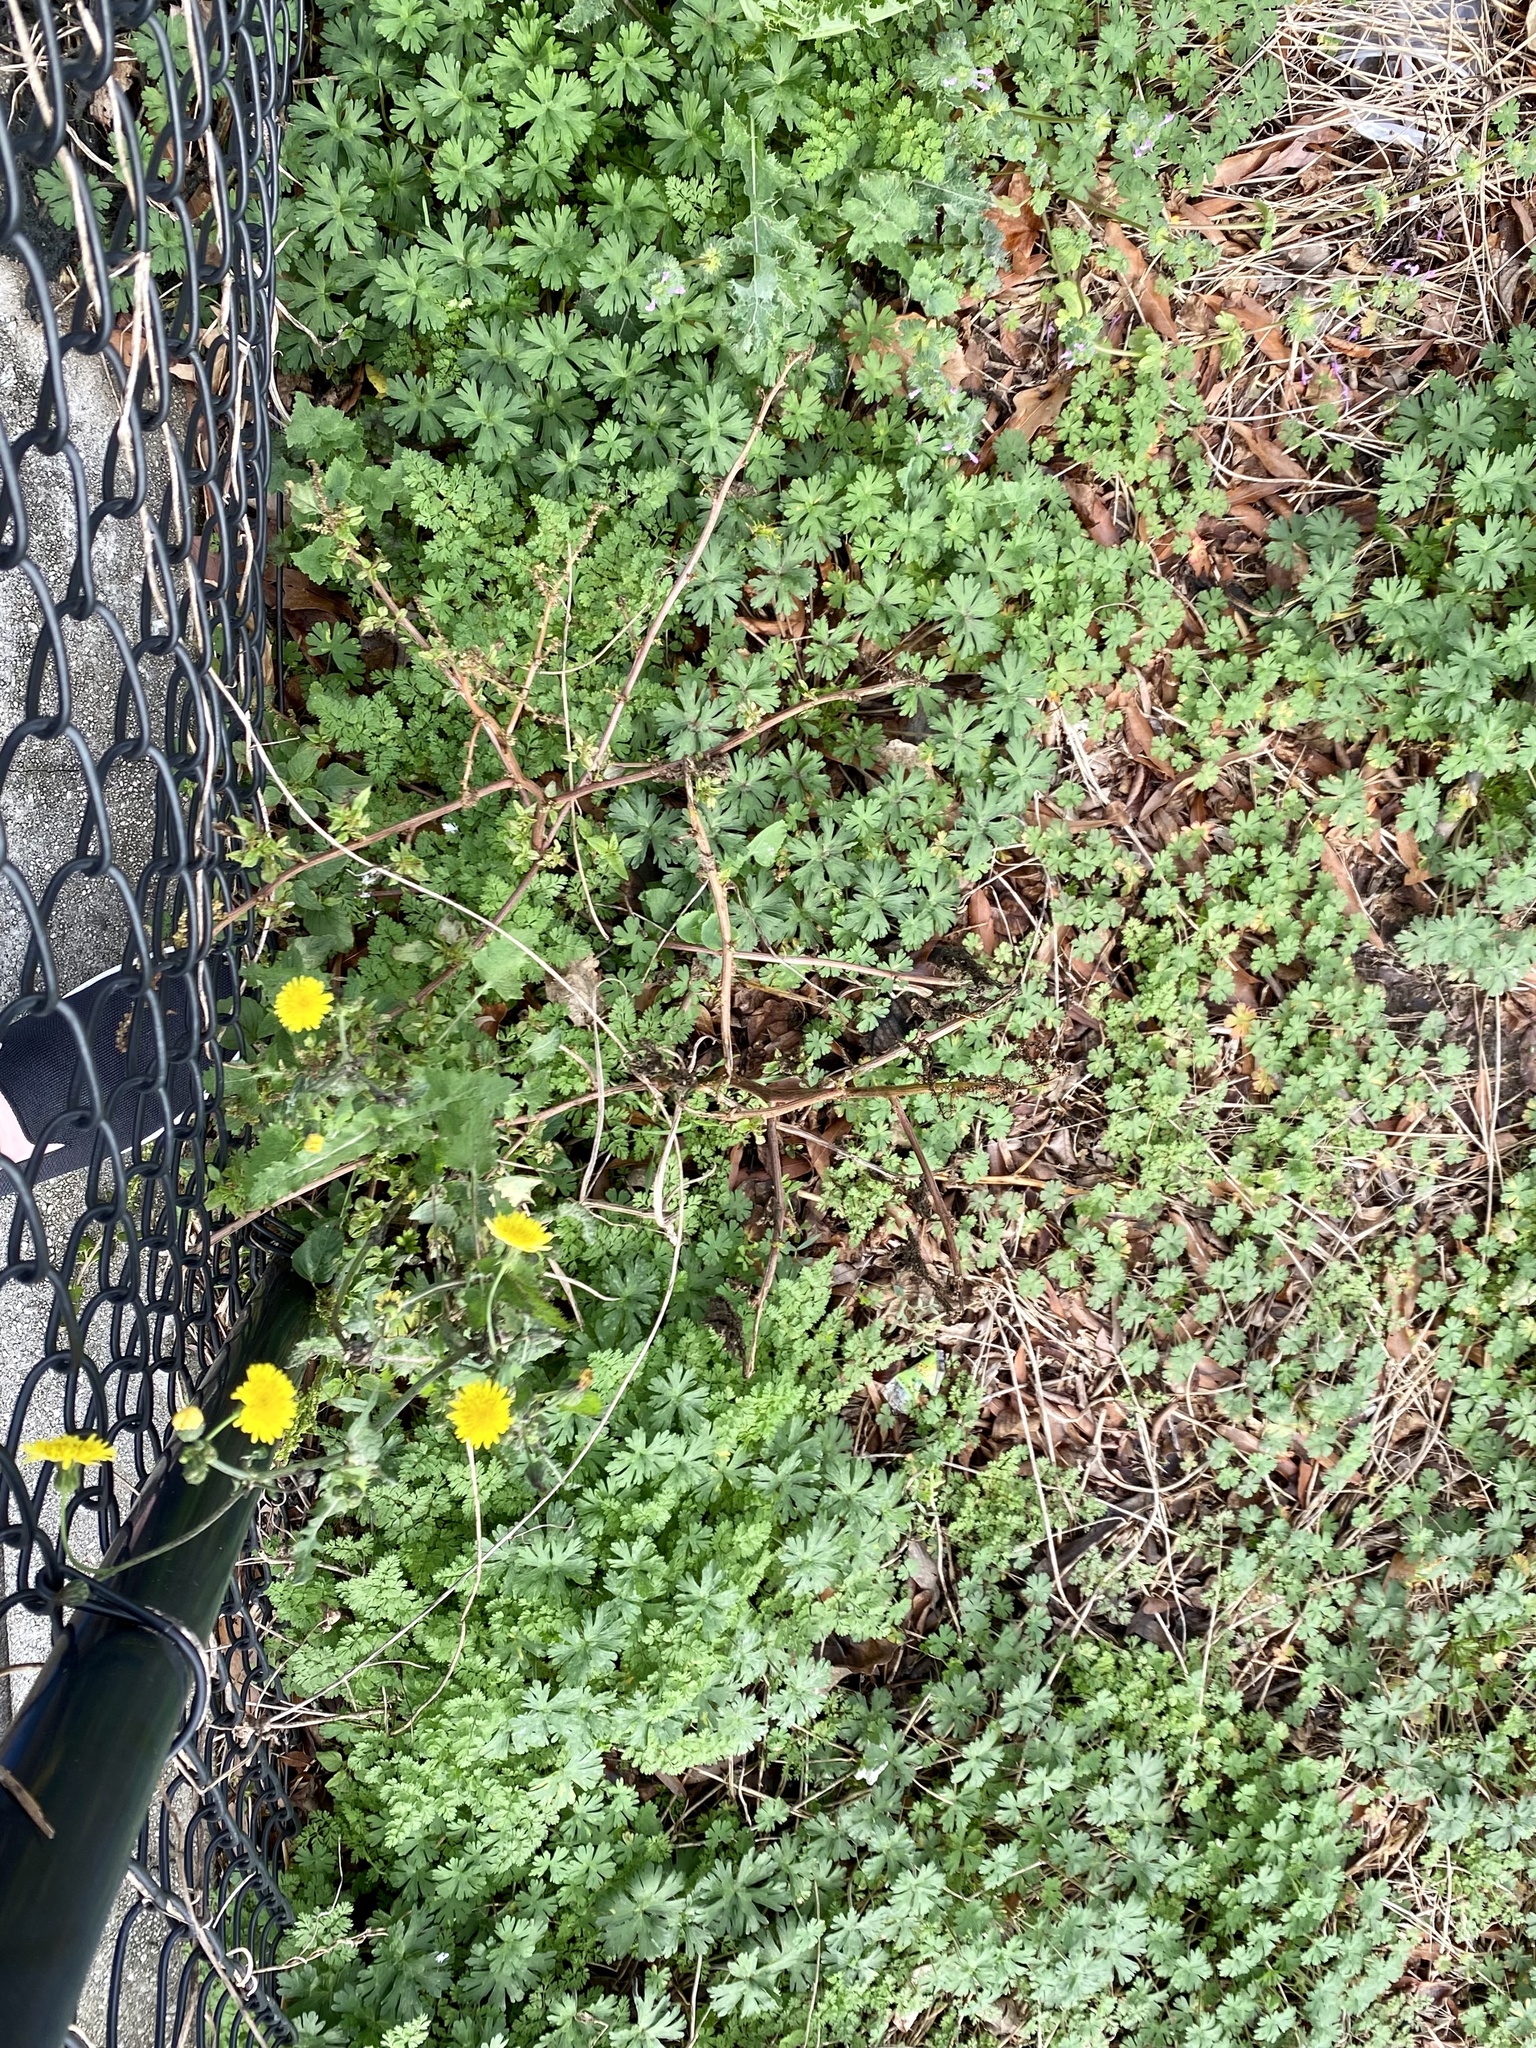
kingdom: Plantae
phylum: Tracheophyta
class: Magnoliopsida
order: Apiales
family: Apiaceae
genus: Chaerophyllum
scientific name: Chaerophyllum tainturieri
